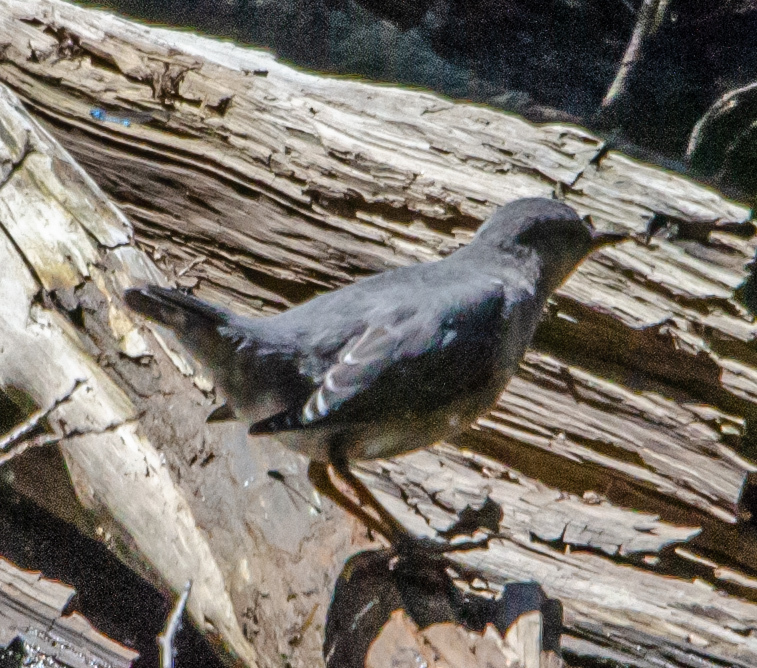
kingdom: Animalia
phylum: Chordata
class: Aves
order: Passeriformes
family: Cinclidae
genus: Cinclus
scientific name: Cinclus mexicanus
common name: American dipper
